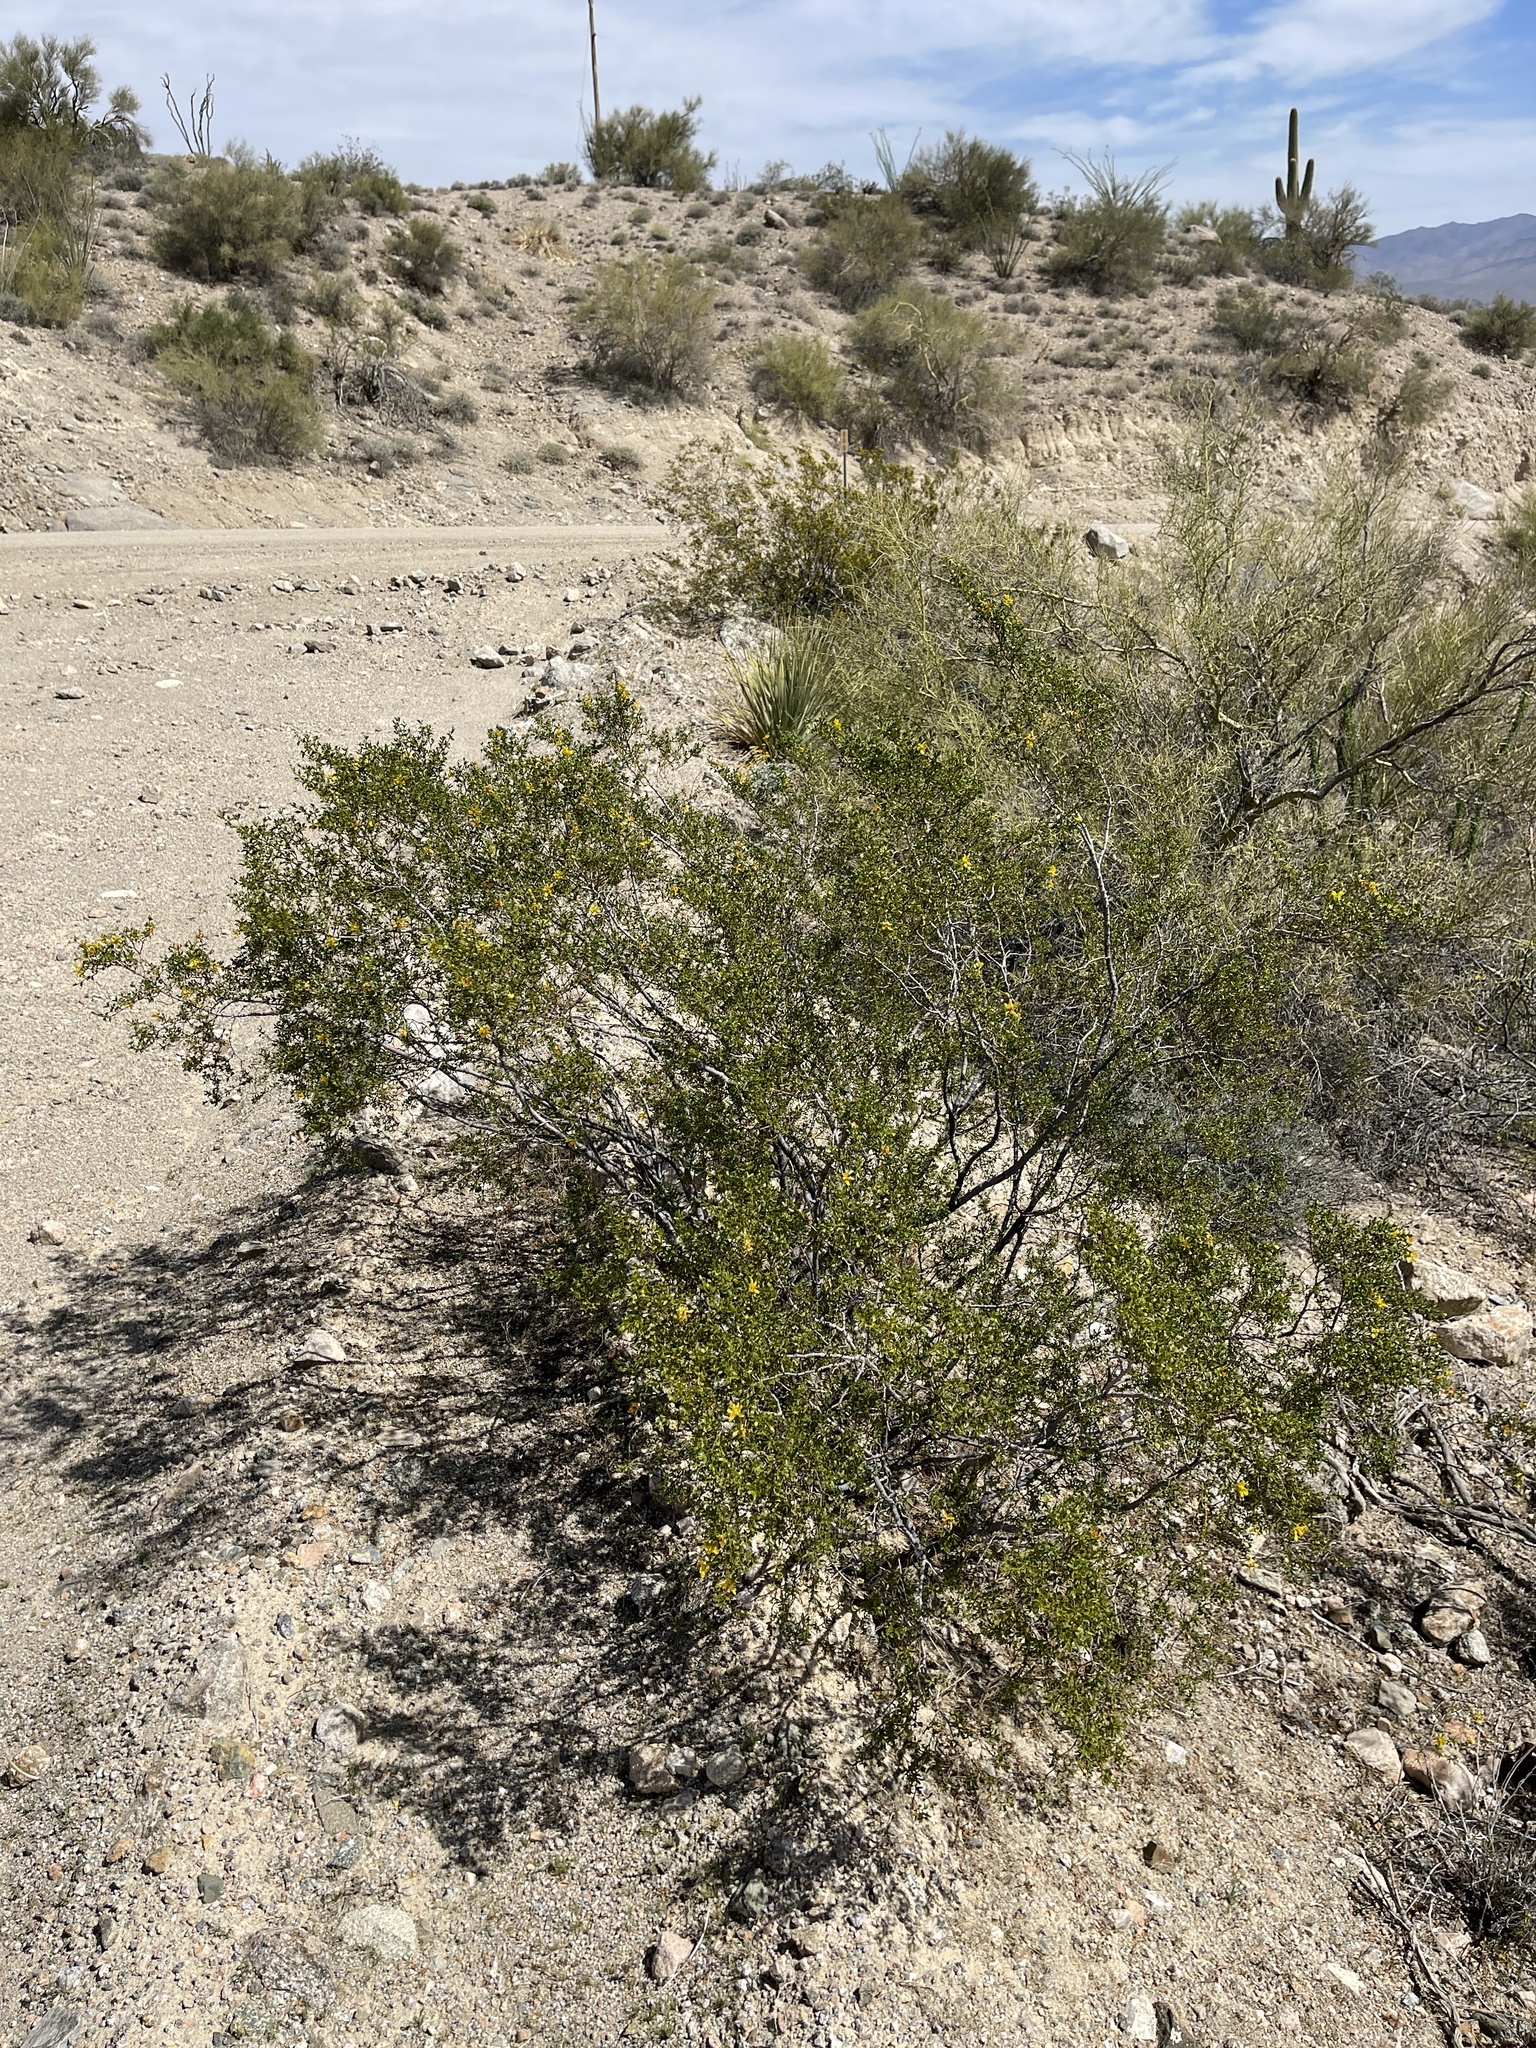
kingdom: Plantae
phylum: Tracheophyta
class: Magnoliopsida
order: Zygophyllales
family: Zygophyllaceae
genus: Larrea
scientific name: Larrea tridentata
